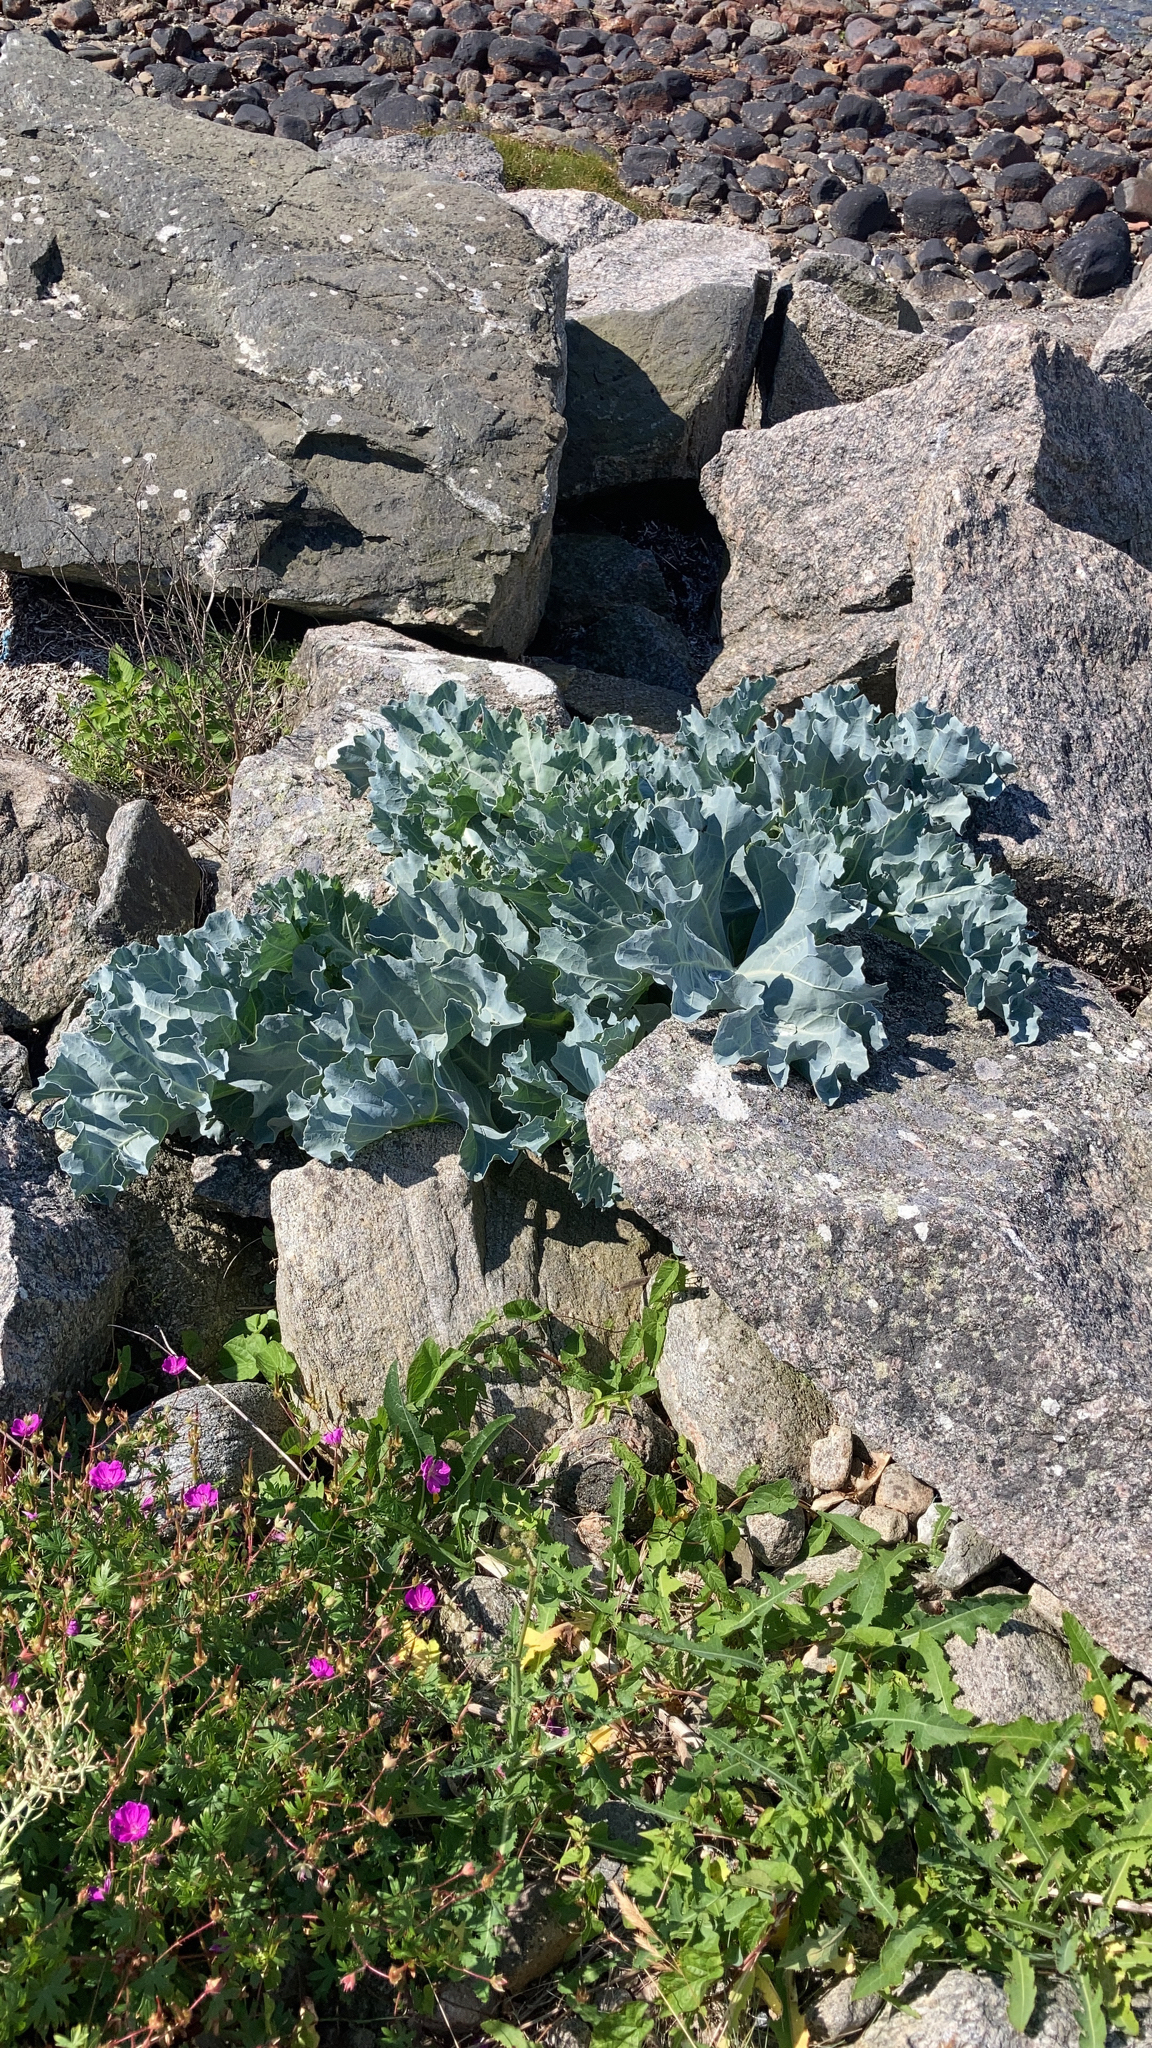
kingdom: Plantae
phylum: Tracheophyta
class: Magnoliopsida
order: Brassicales
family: Brassicaceae
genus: Crambe
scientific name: Crambe maritima
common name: Sea-kale
